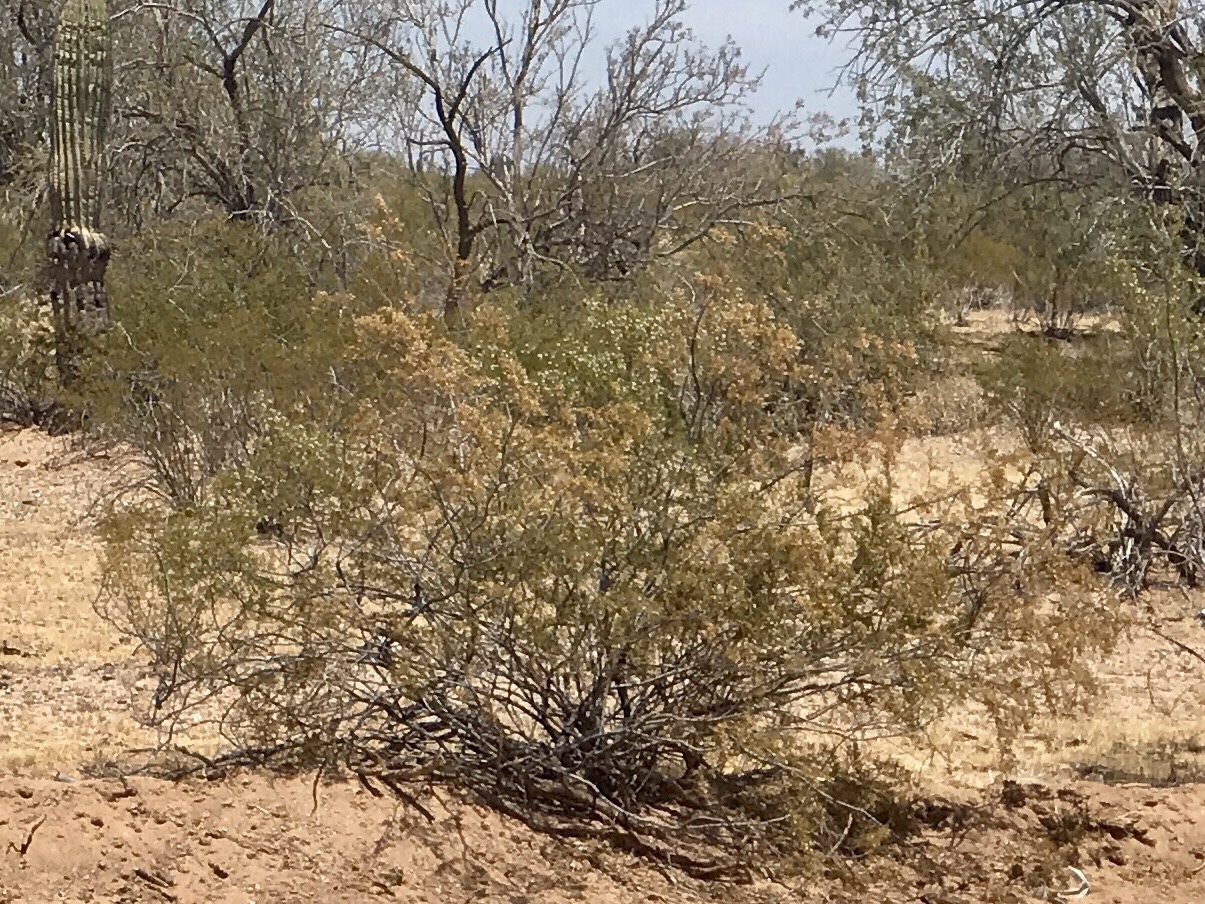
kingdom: Plantae
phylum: Tracheophyta
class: Magnoliopsida
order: Zygophyllales
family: Zygophyllaceae
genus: Larrea
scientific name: Larrea tridentata
